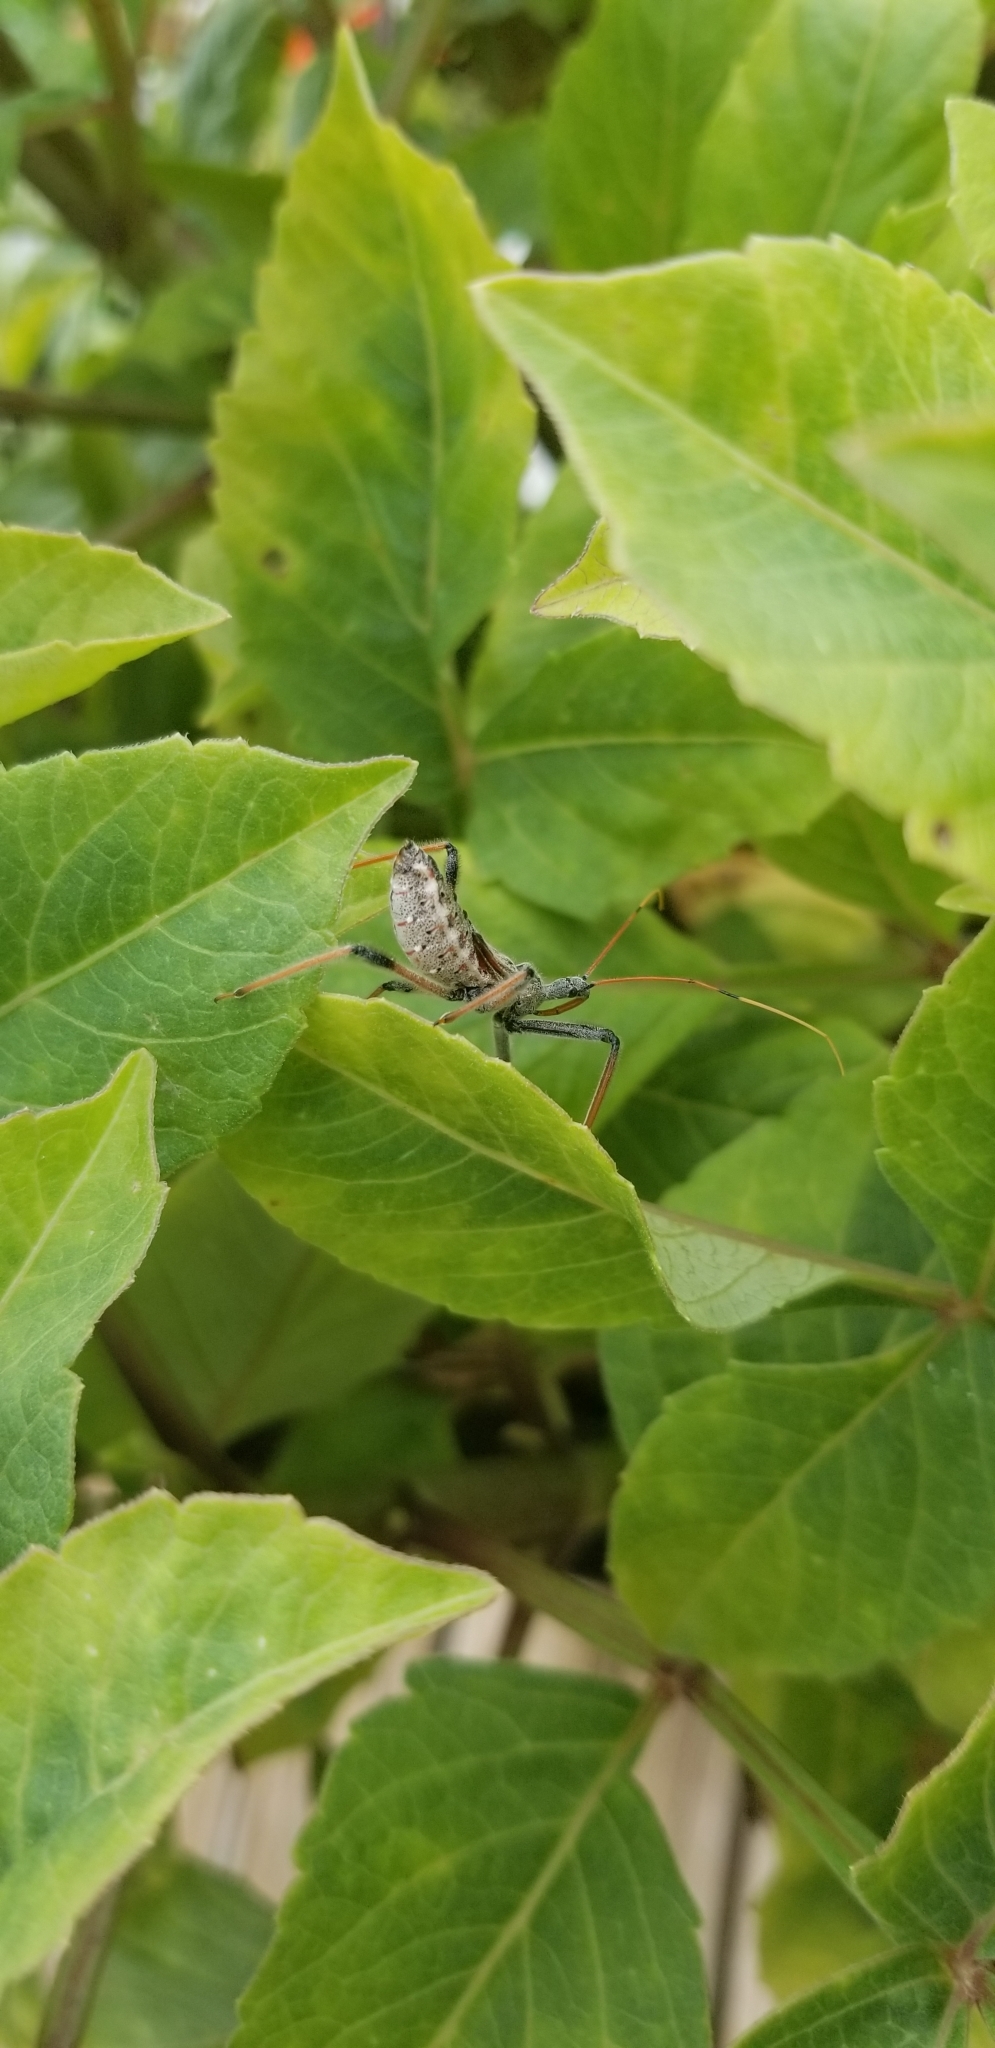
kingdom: Animalia
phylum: Arthropoda
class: Insecta
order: Hemiptera
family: Reduviidae
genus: Arilus
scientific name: Arilus cristatus
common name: North american wheel bug
